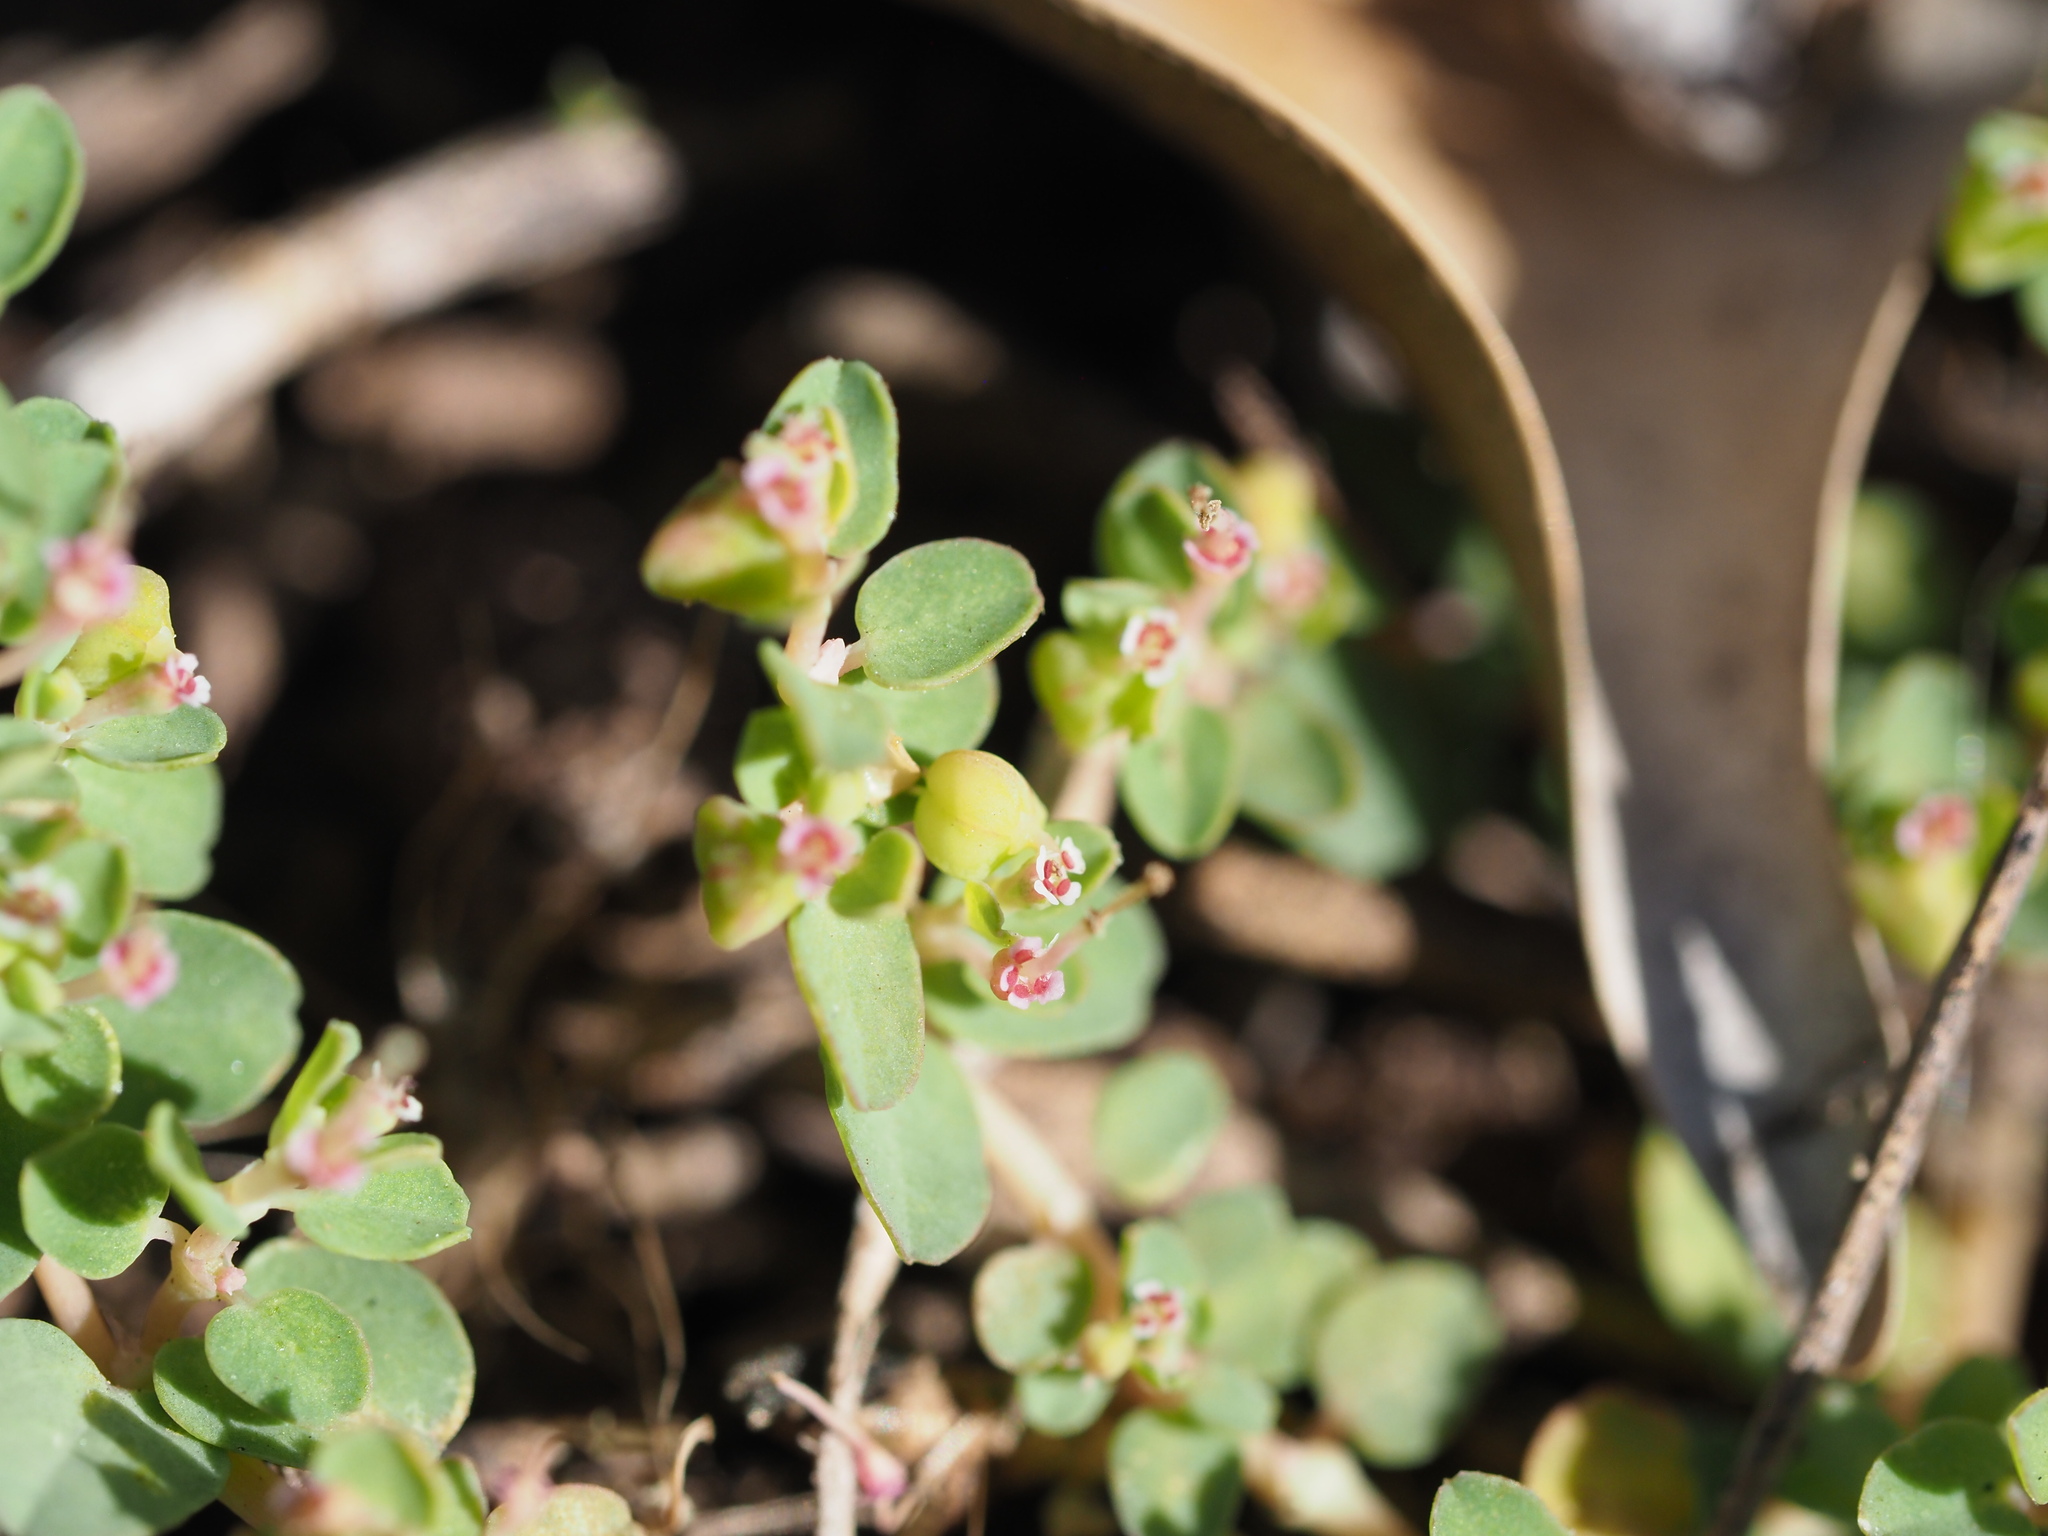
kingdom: Plantae
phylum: Tracheophyta
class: Magnoliopsida
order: Malpighiales
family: Euphorbiaceae
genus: Euphorbia
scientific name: Euphorbia serpens
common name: Matted sandmat
